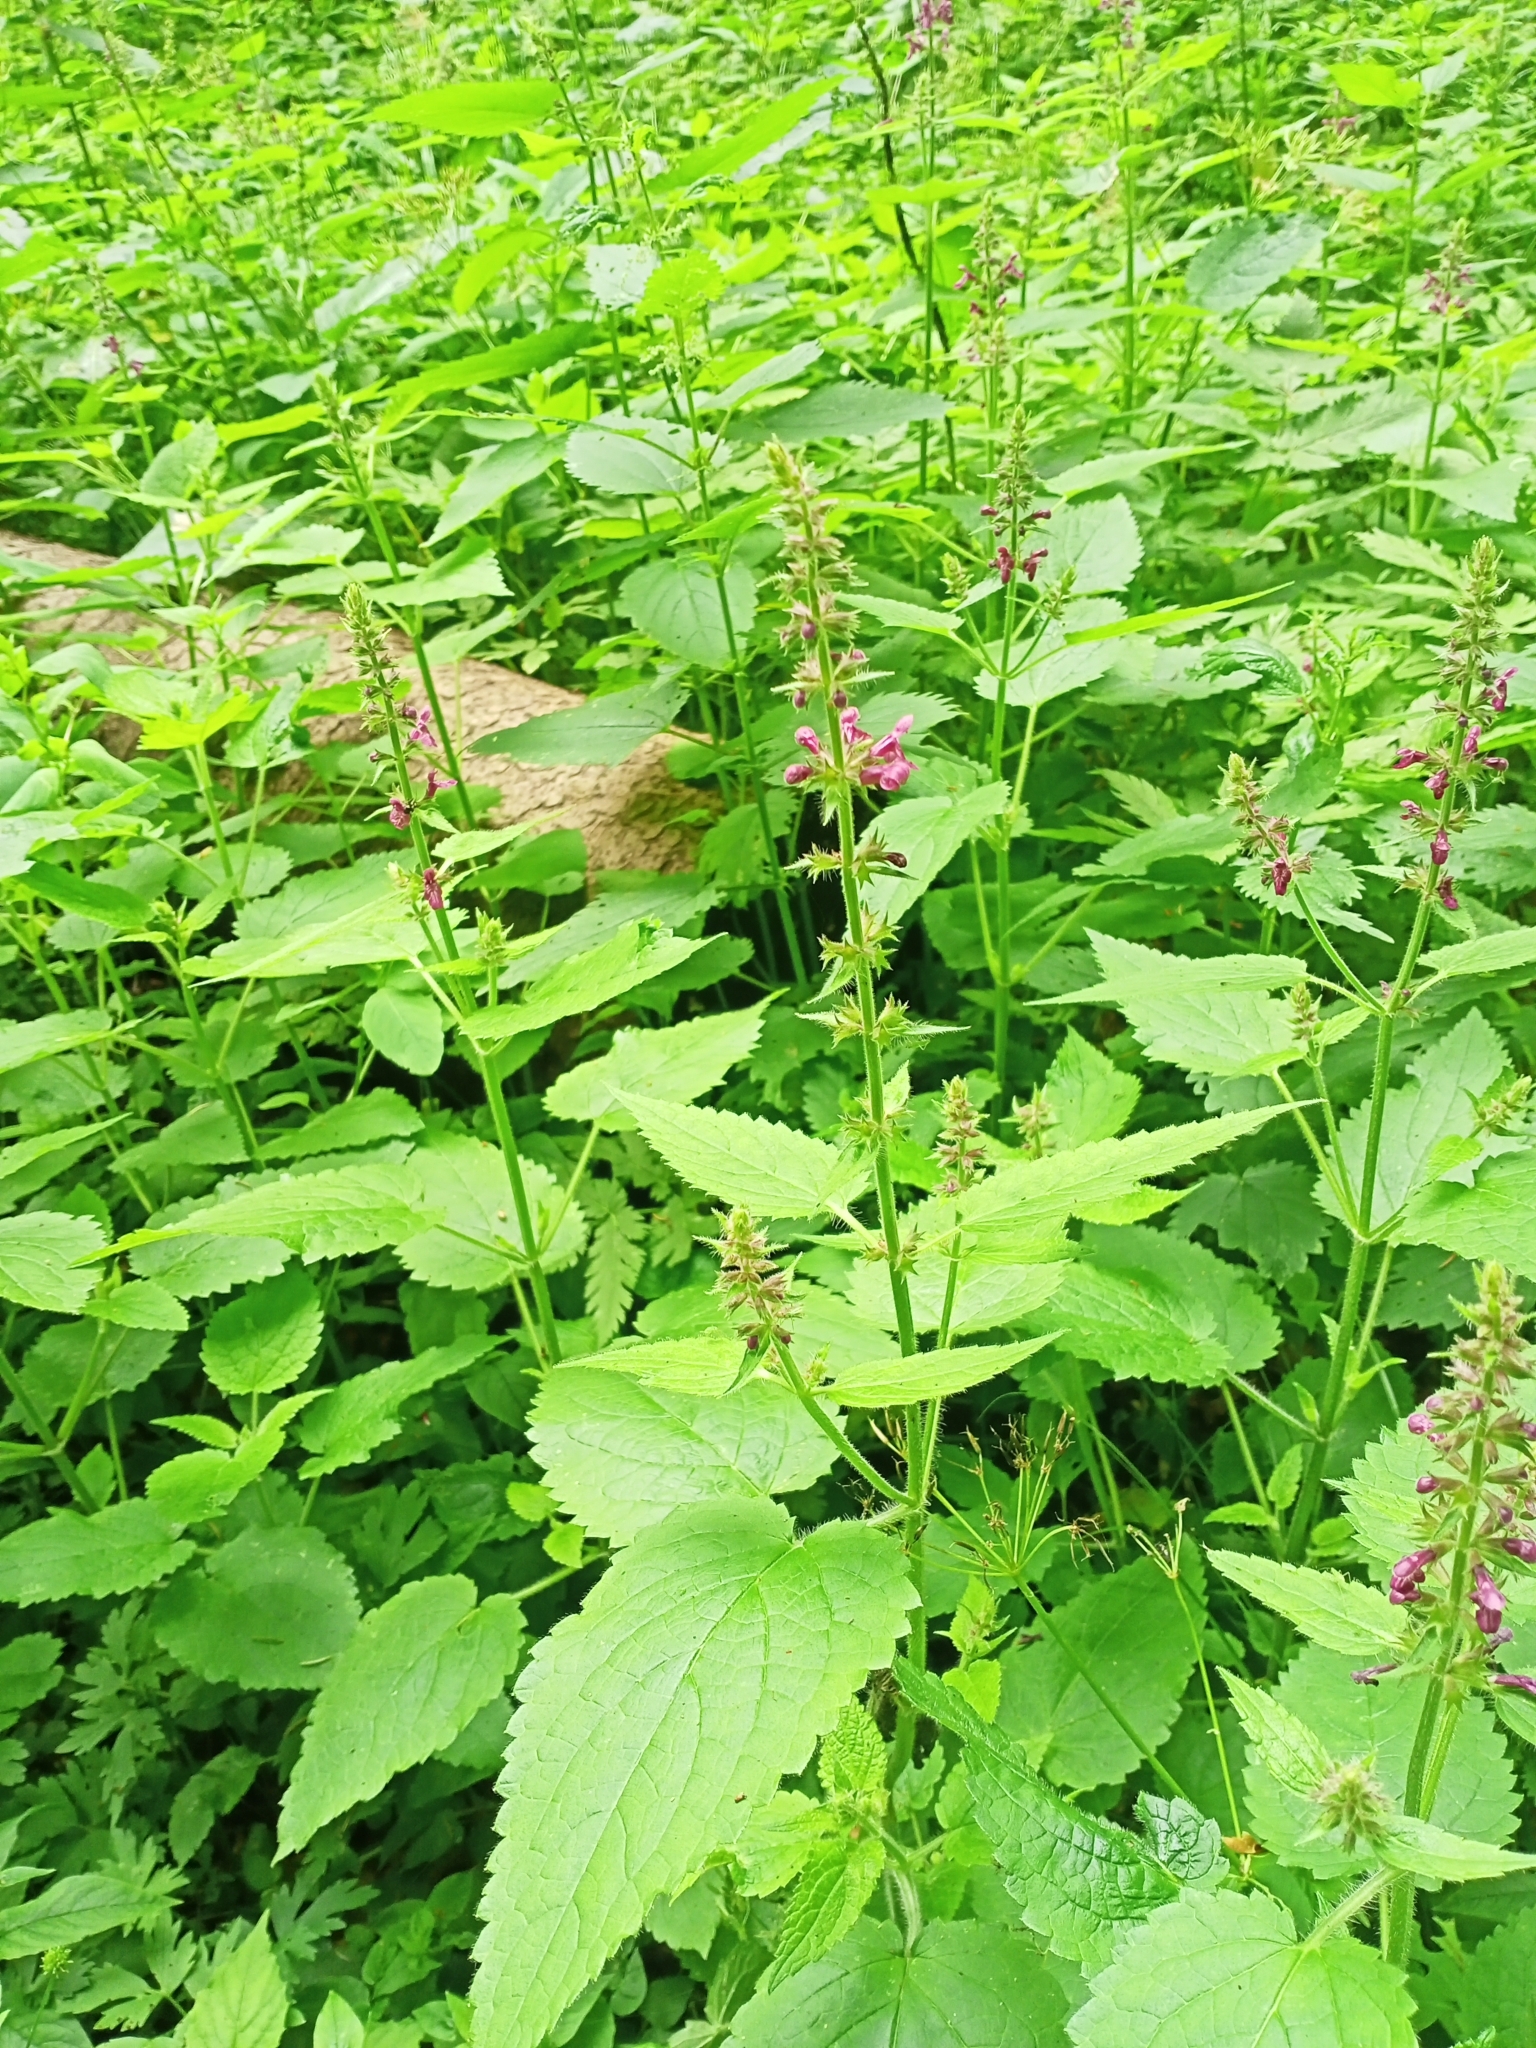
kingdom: Plantae
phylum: Tracheophyta
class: Magnoliopsida
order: Lamiales
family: Lamiaceae
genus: Stachys
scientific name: Stachys sylvatica
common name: Hedge woundwort
